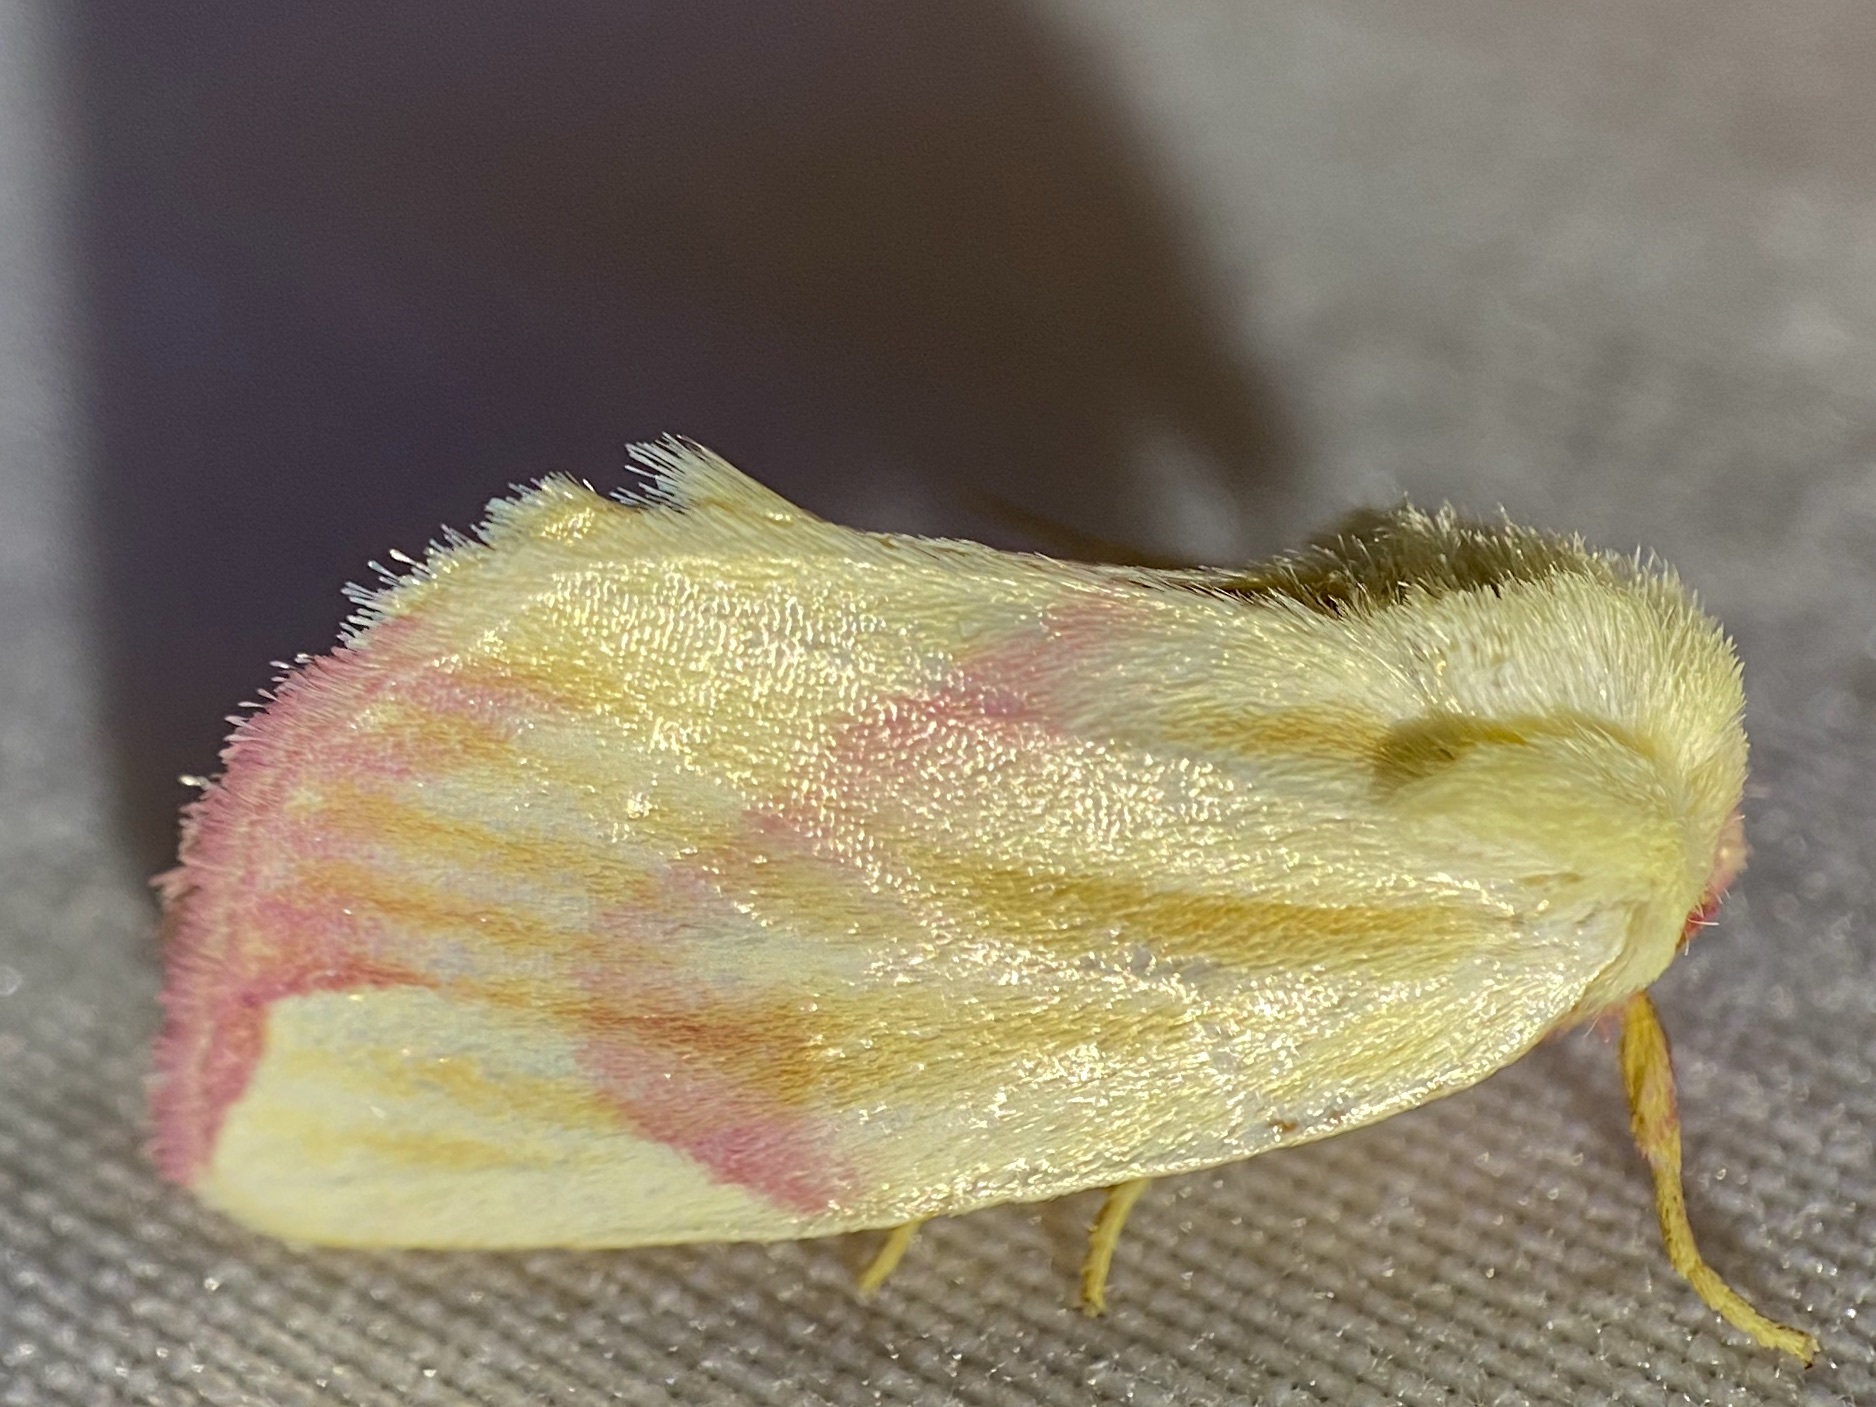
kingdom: Animalia
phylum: Arthropoda
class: Insecta
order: Lepidoptera
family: Noctuidae
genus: Thurberiphaga
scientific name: Thurberiphaga diffusa
